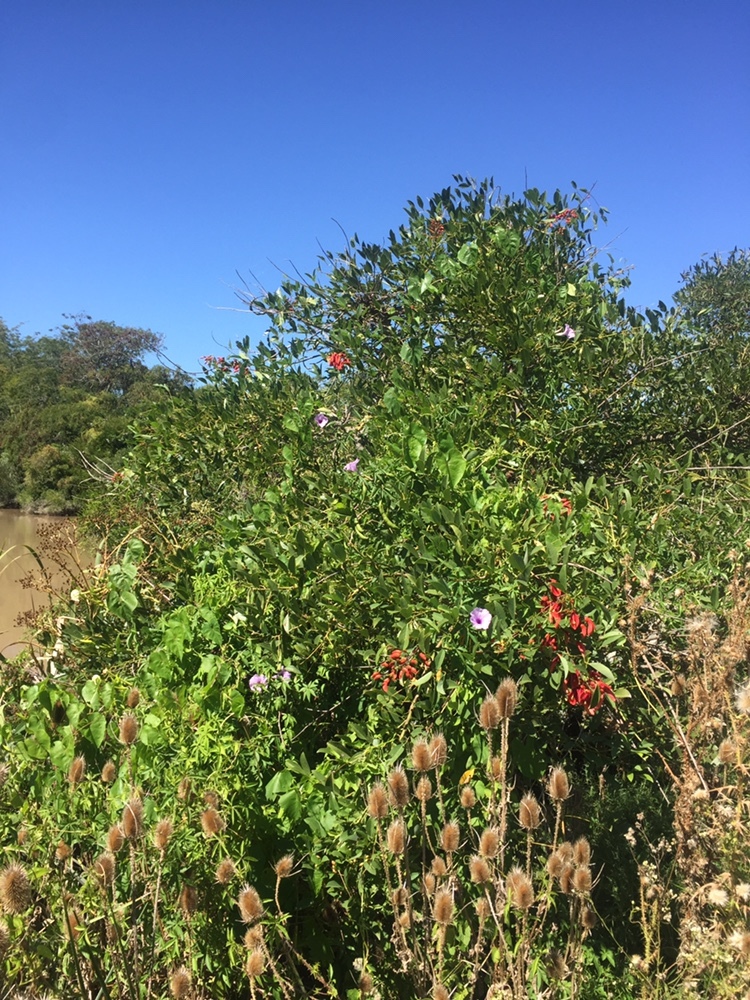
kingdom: Plantae
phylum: Tracheophyta
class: Magnoliopsida
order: Fabales
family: Fabaceae
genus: Erythrina
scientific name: Erythrina crista-galli
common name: Cockspur coral tree
